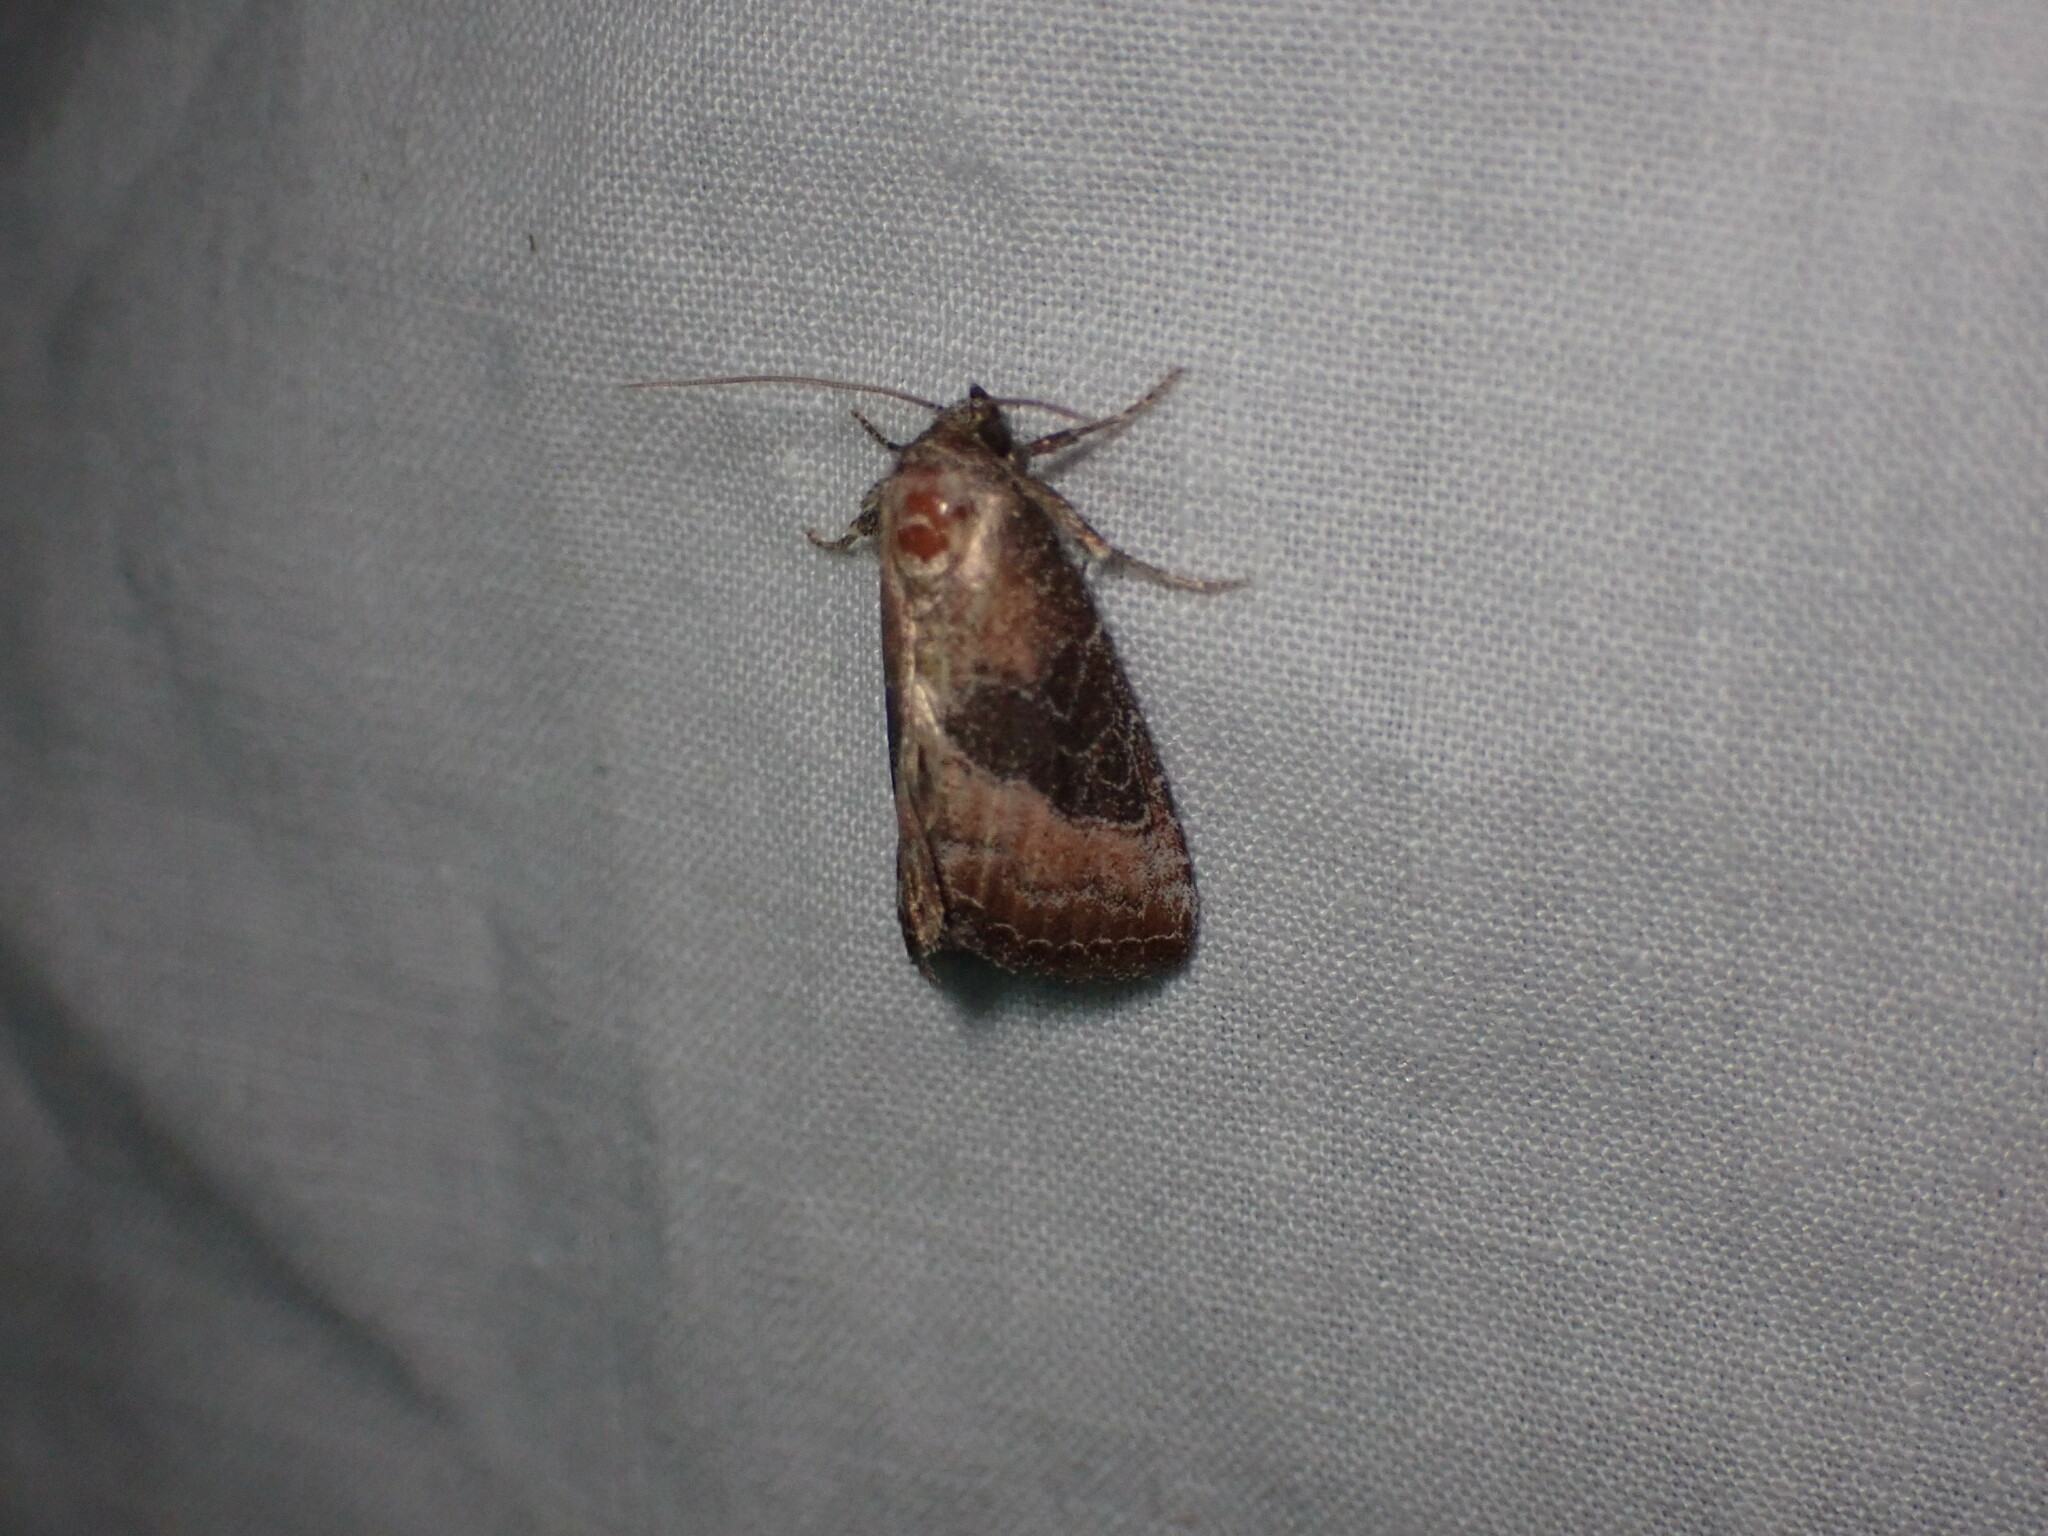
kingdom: Animalia
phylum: Arthropoda
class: Insecta
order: Lepidoptera
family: Noctuidae
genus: Ogdoconta
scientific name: Ogdoconta cinereola
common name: Common pinkband
